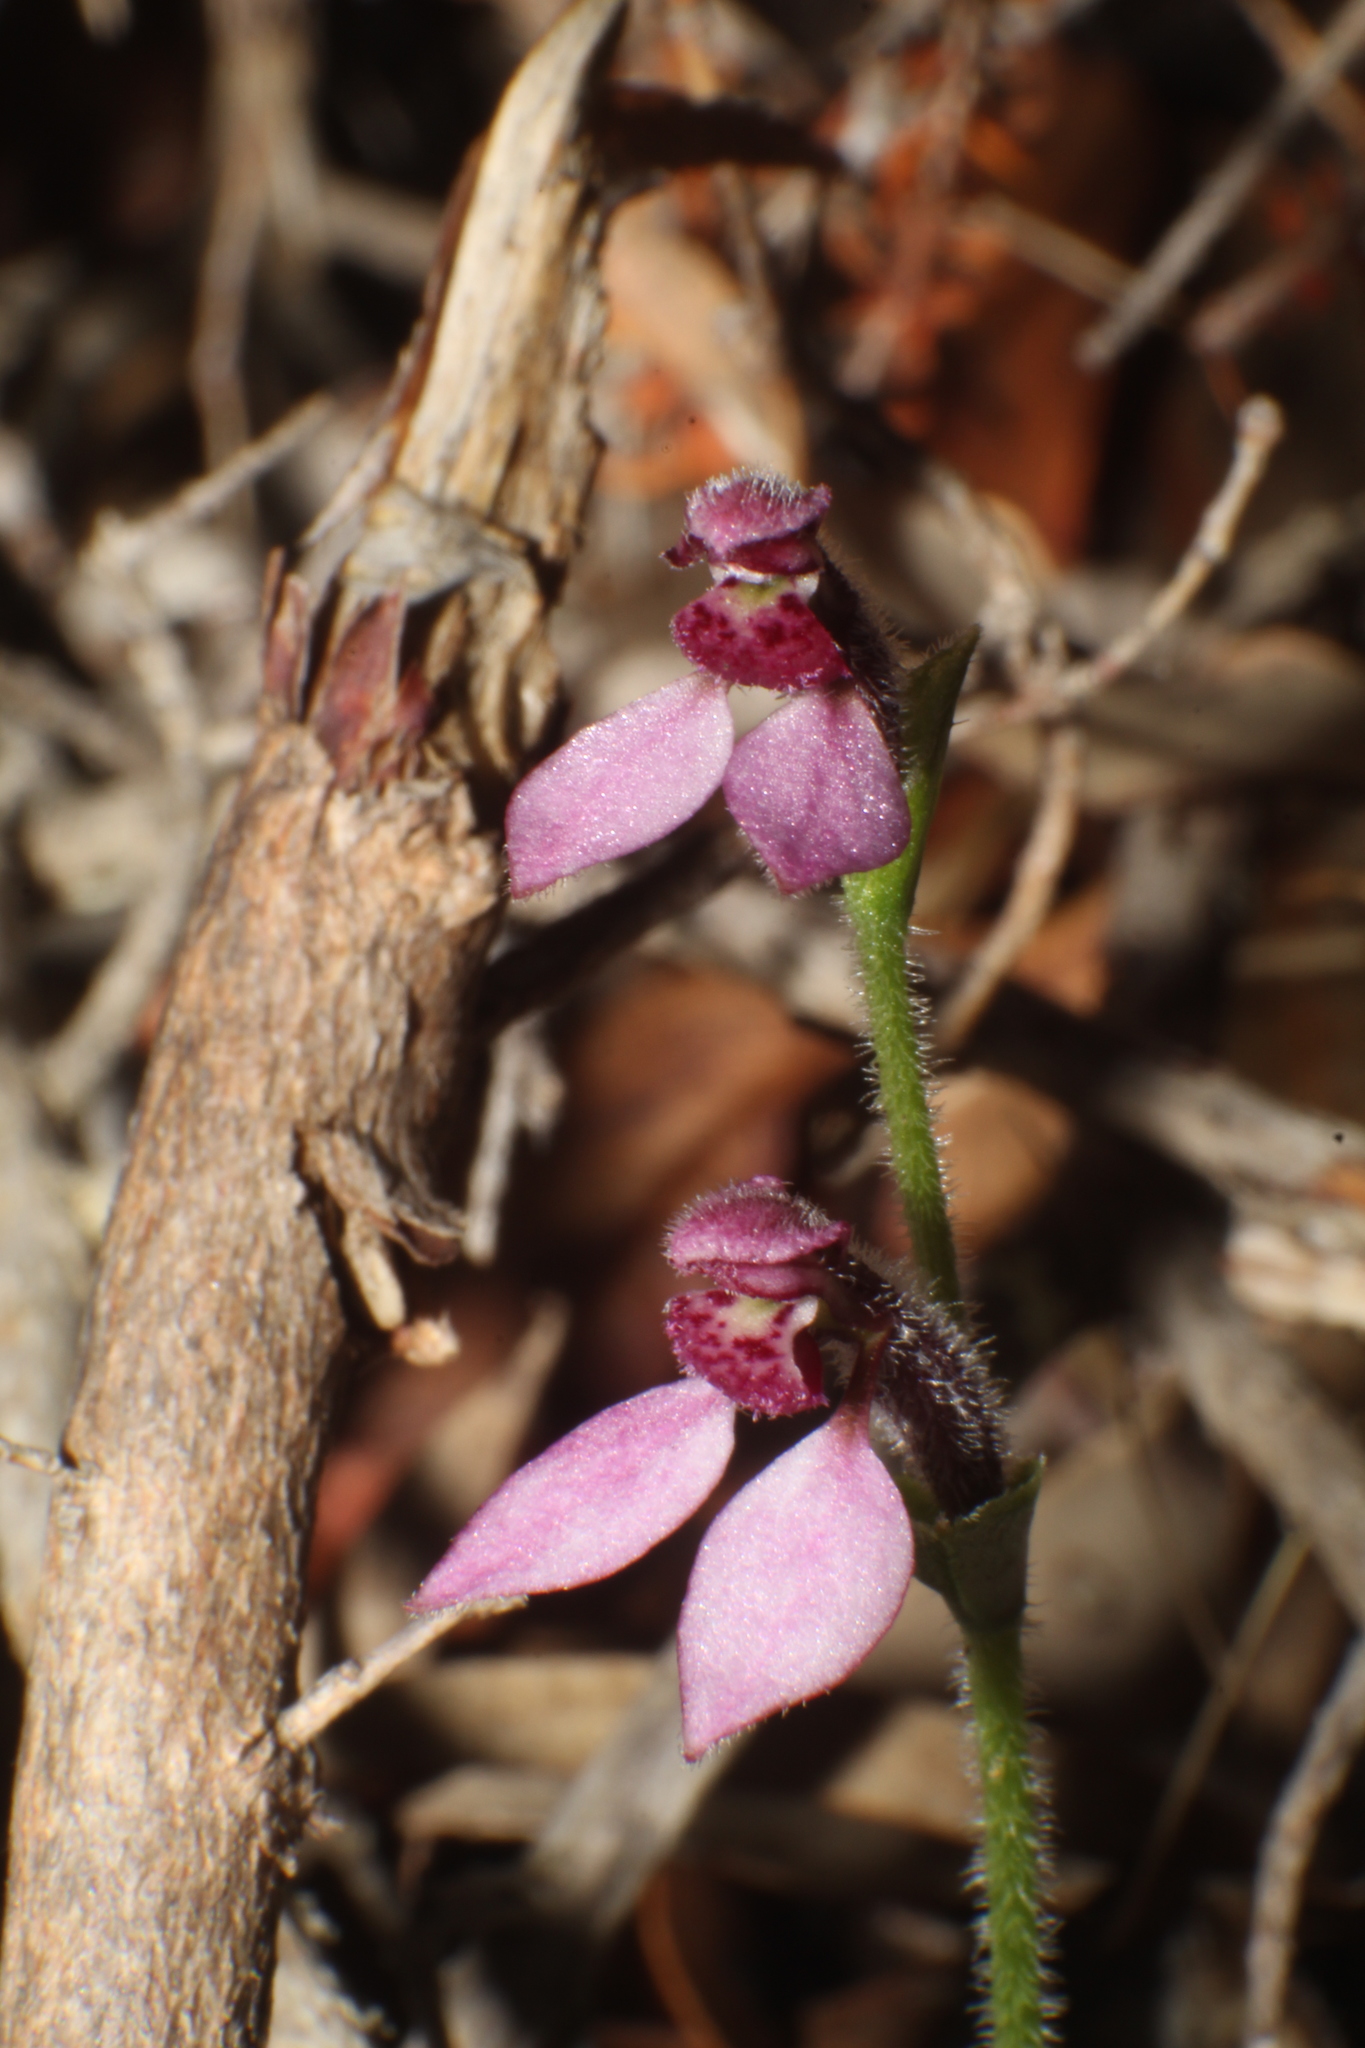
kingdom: Plantae
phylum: Tracheophyta
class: Liliopsida
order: Asparagales
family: Orchidaceae
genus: Eriochilus
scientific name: Eriochilus scaber
